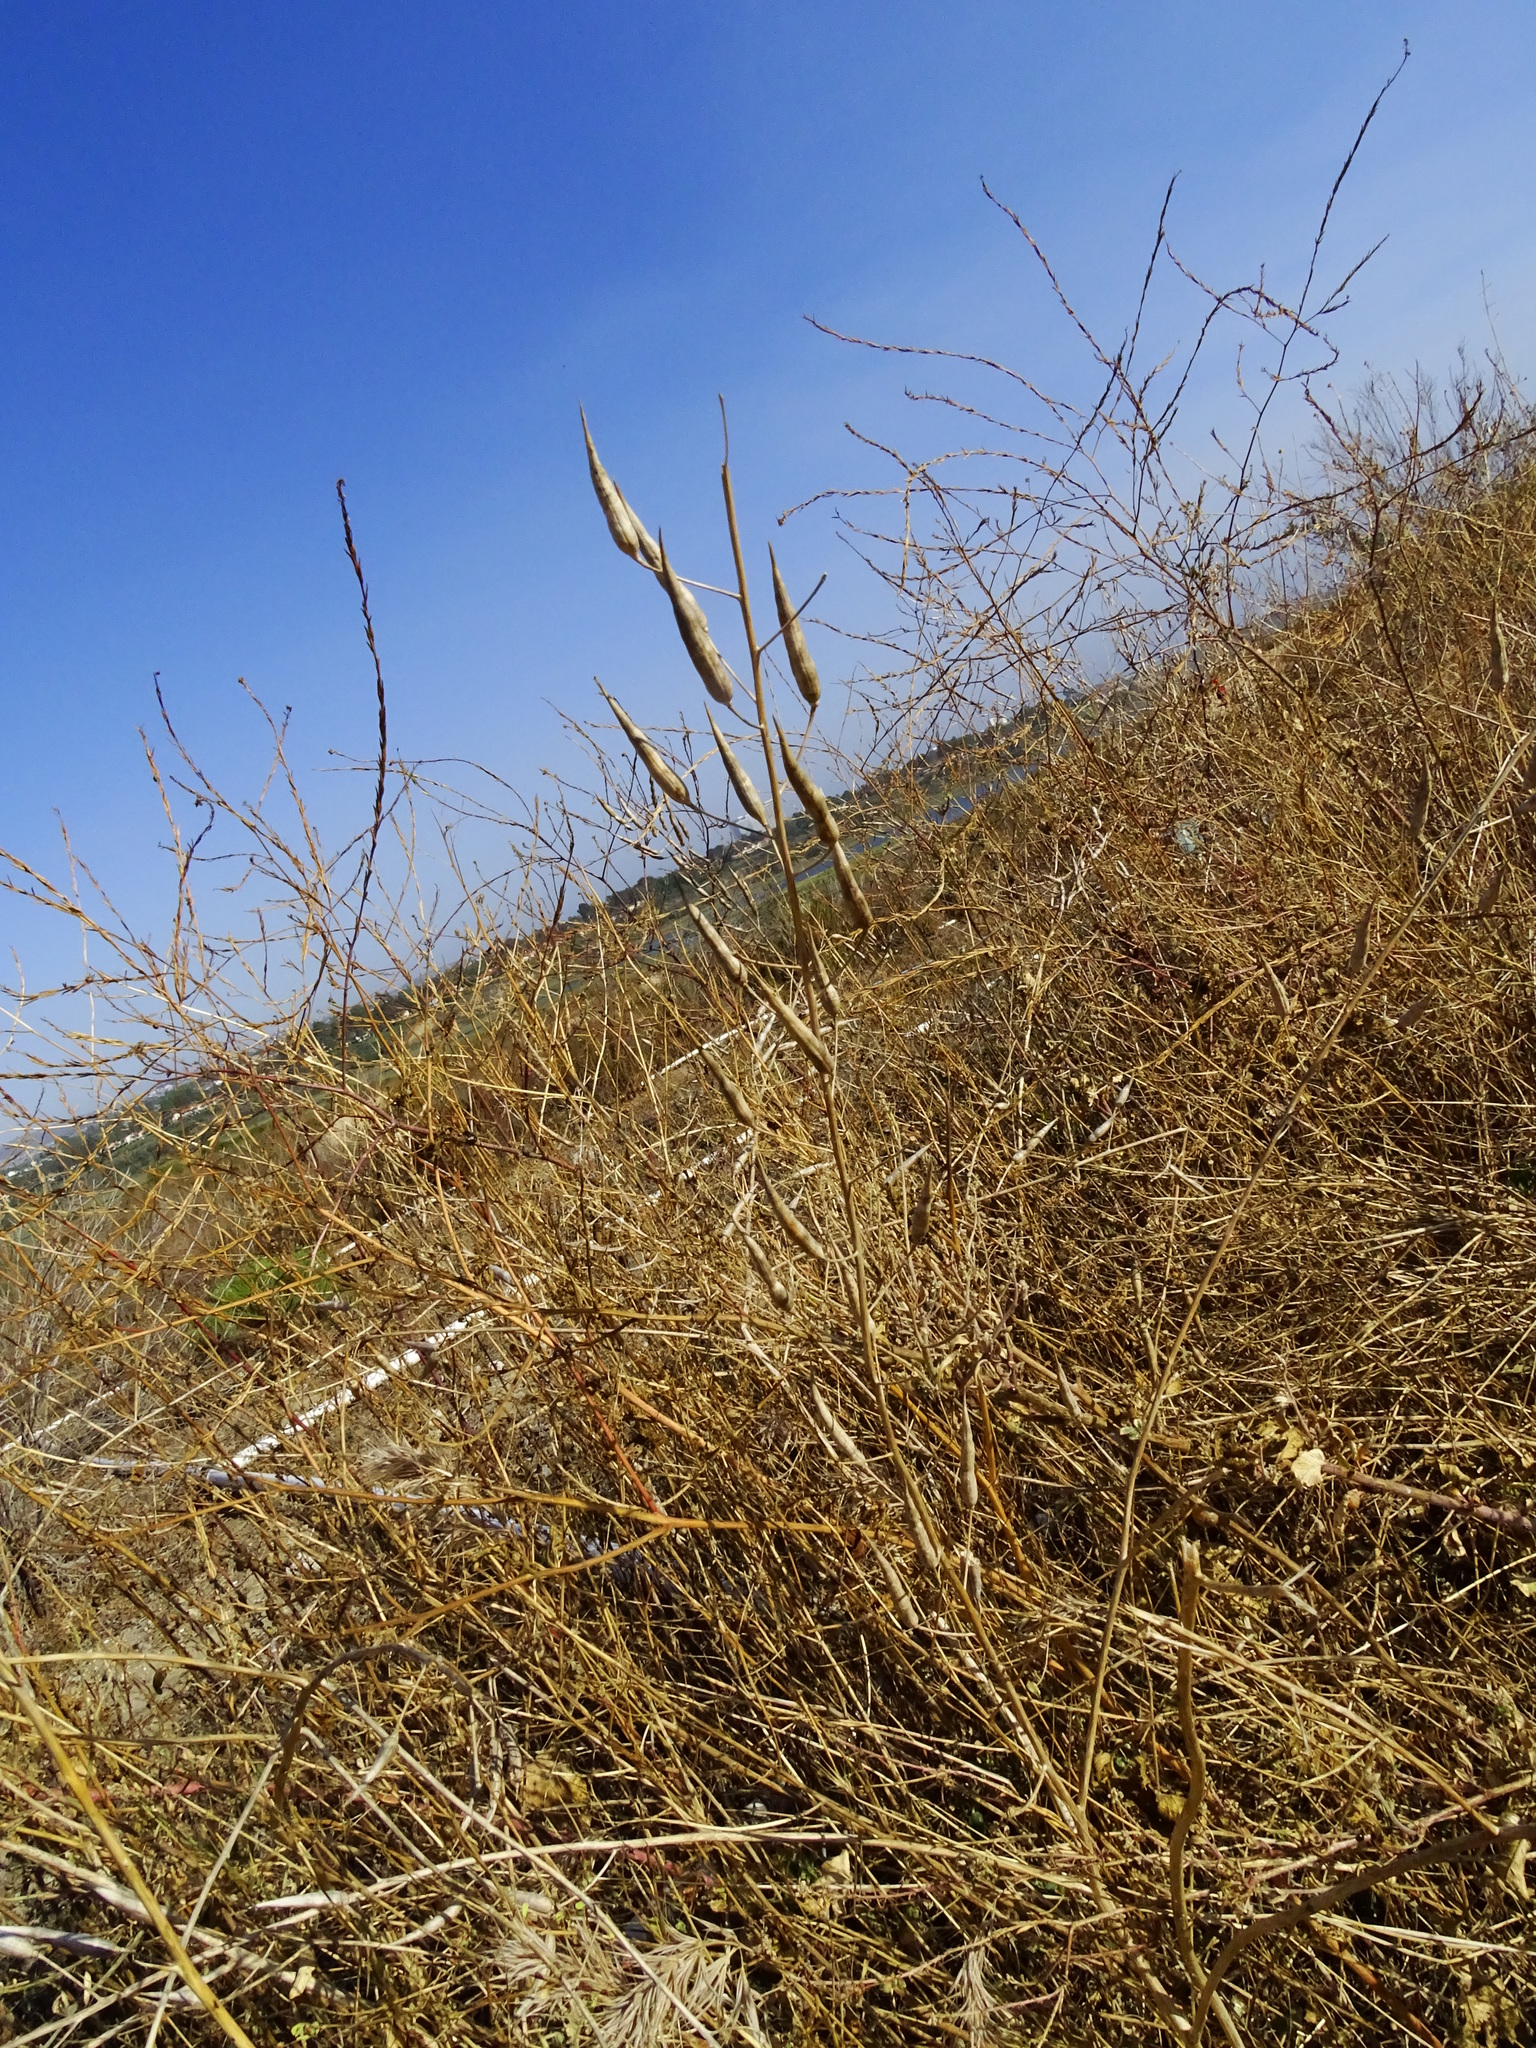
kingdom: Plantae
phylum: Tracheophyta
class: Magnoliopsida
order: Brassicales
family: Brassicaceae
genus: Raphanus
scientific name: Raphanus sativus
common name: Cultivated radish
